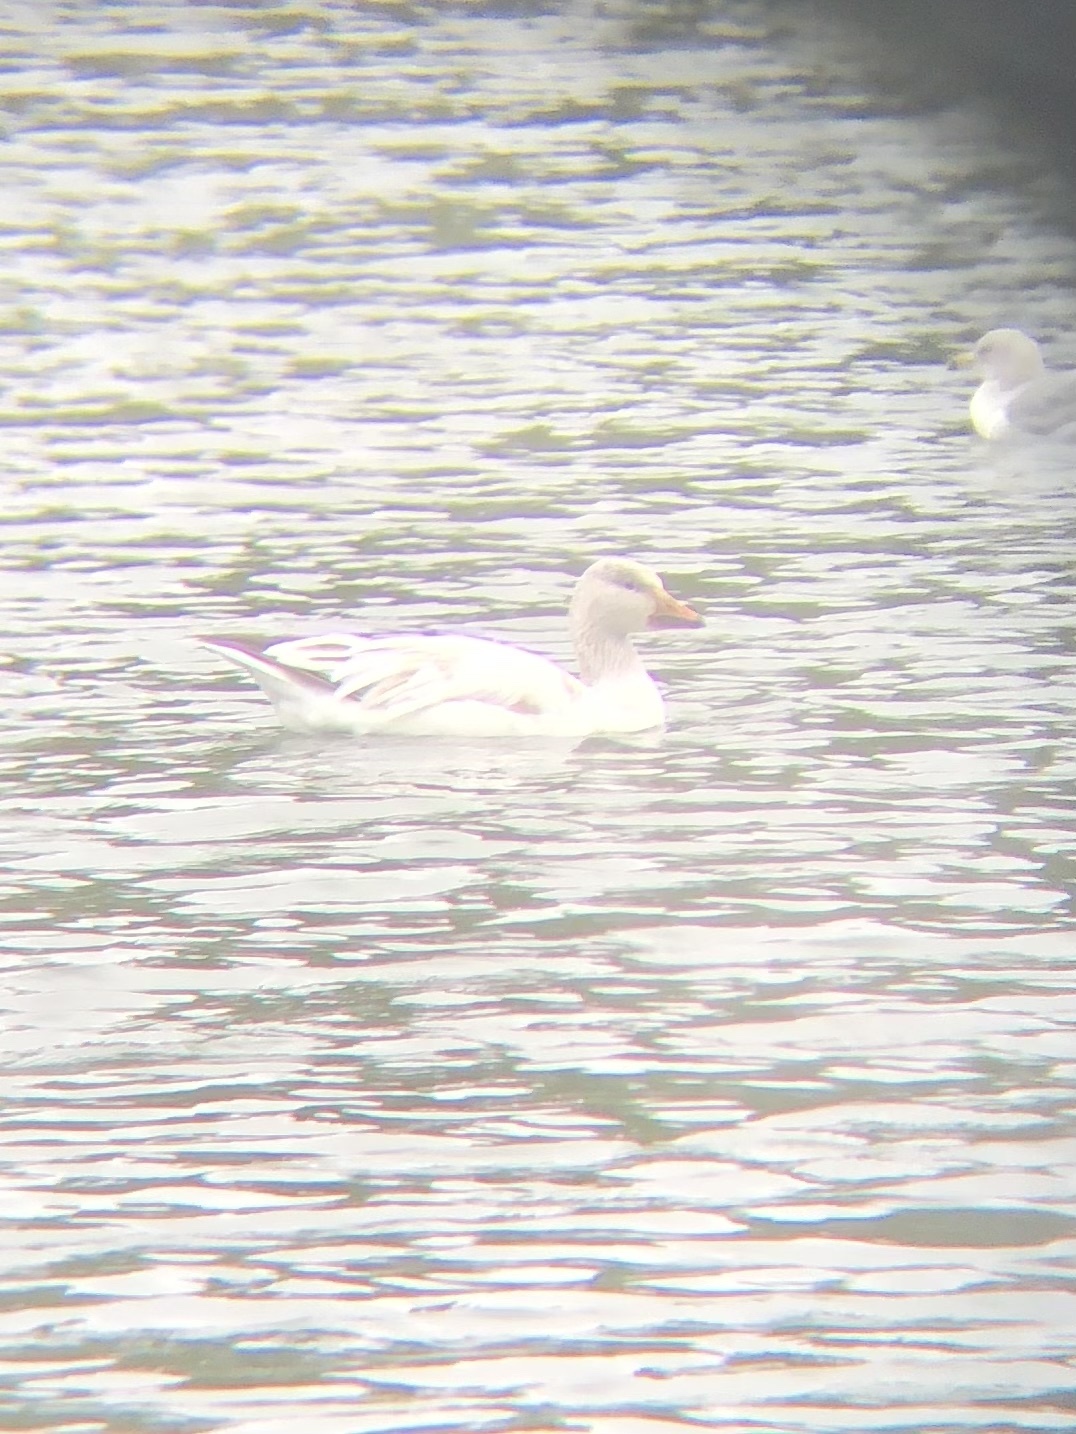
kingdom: Animalia
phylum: Chordata
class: Aves
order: Anseriformes
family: Anatidae
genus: Anser
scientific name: Anser caerulescens
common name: Snow goose
